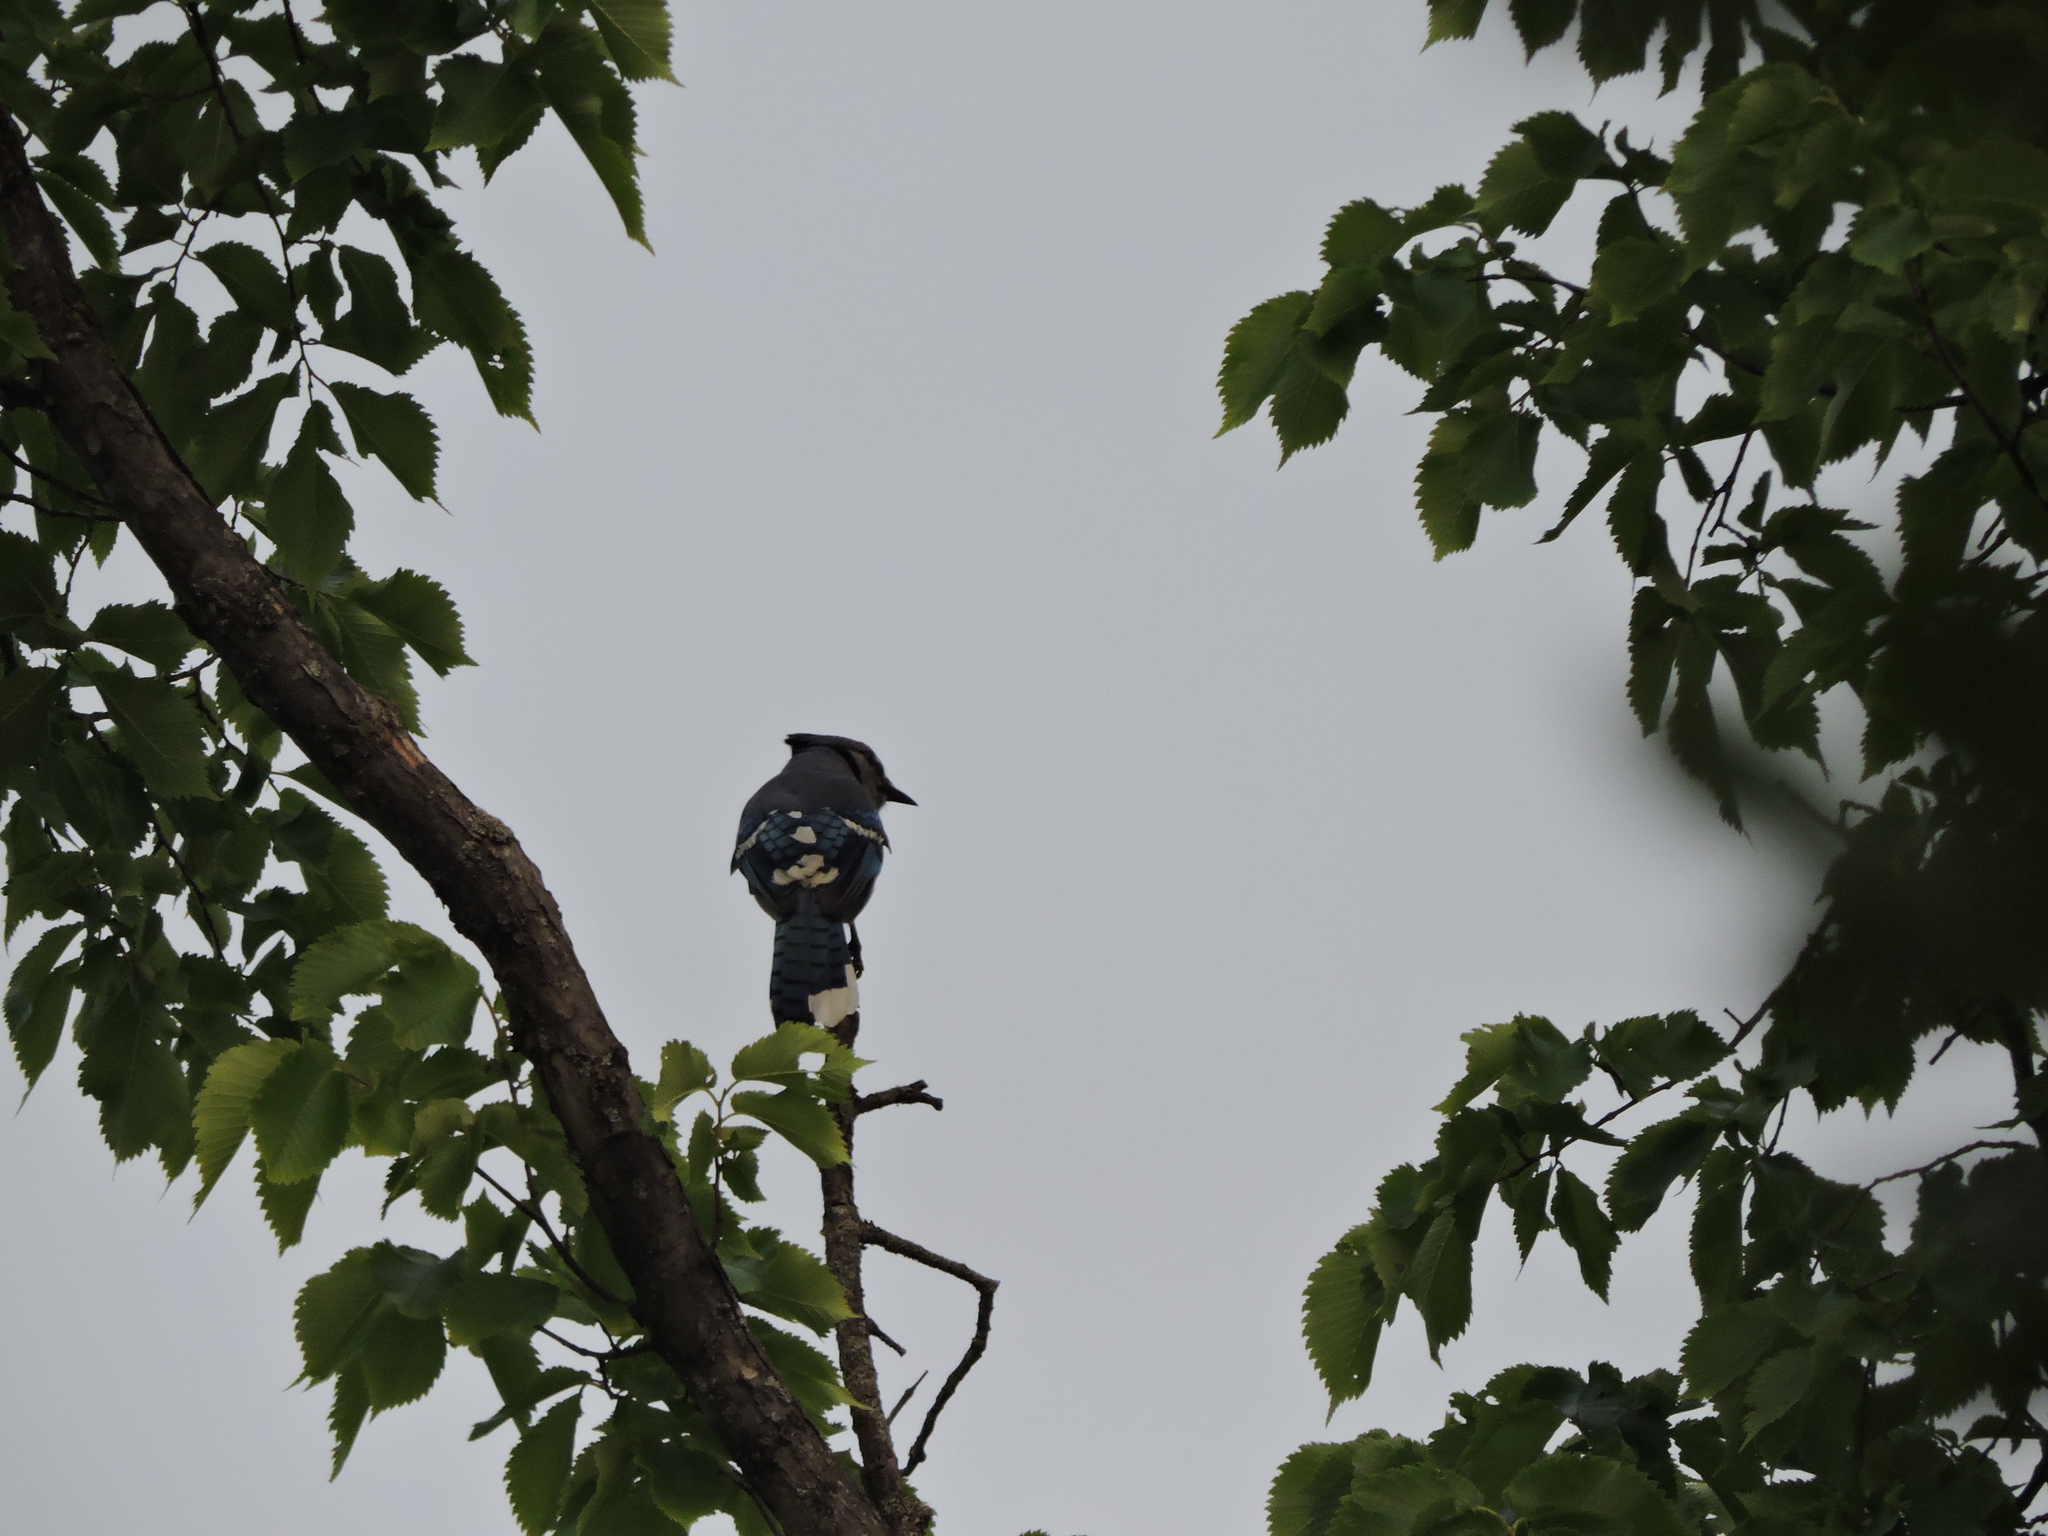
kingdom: Animalia
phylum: Chordata
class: Aves
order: Passeriformes
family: Corvidae
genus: Cyanocitta
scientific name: Cyanocitta cristata
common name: Blue jay
